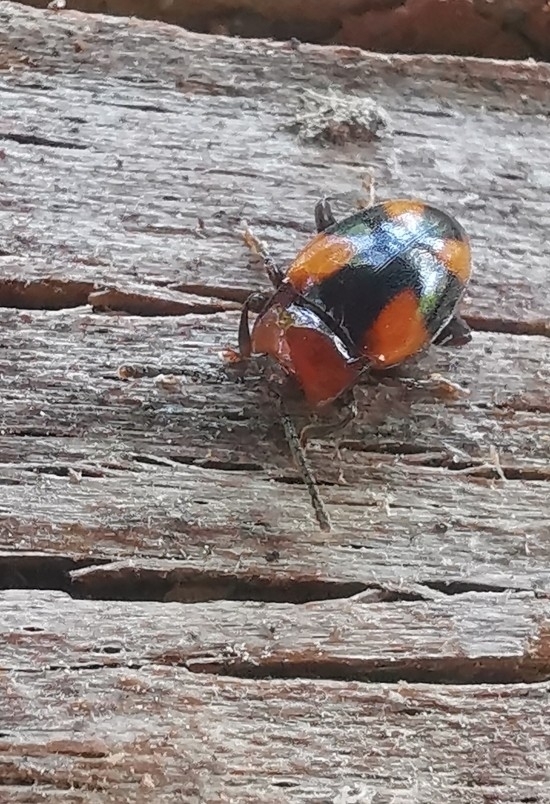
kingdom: Animalia
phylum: Arthropoda
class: Insecta
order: Coleoptera
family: Endomychidae
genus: Mycetina
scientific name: Mycetina cruciata
